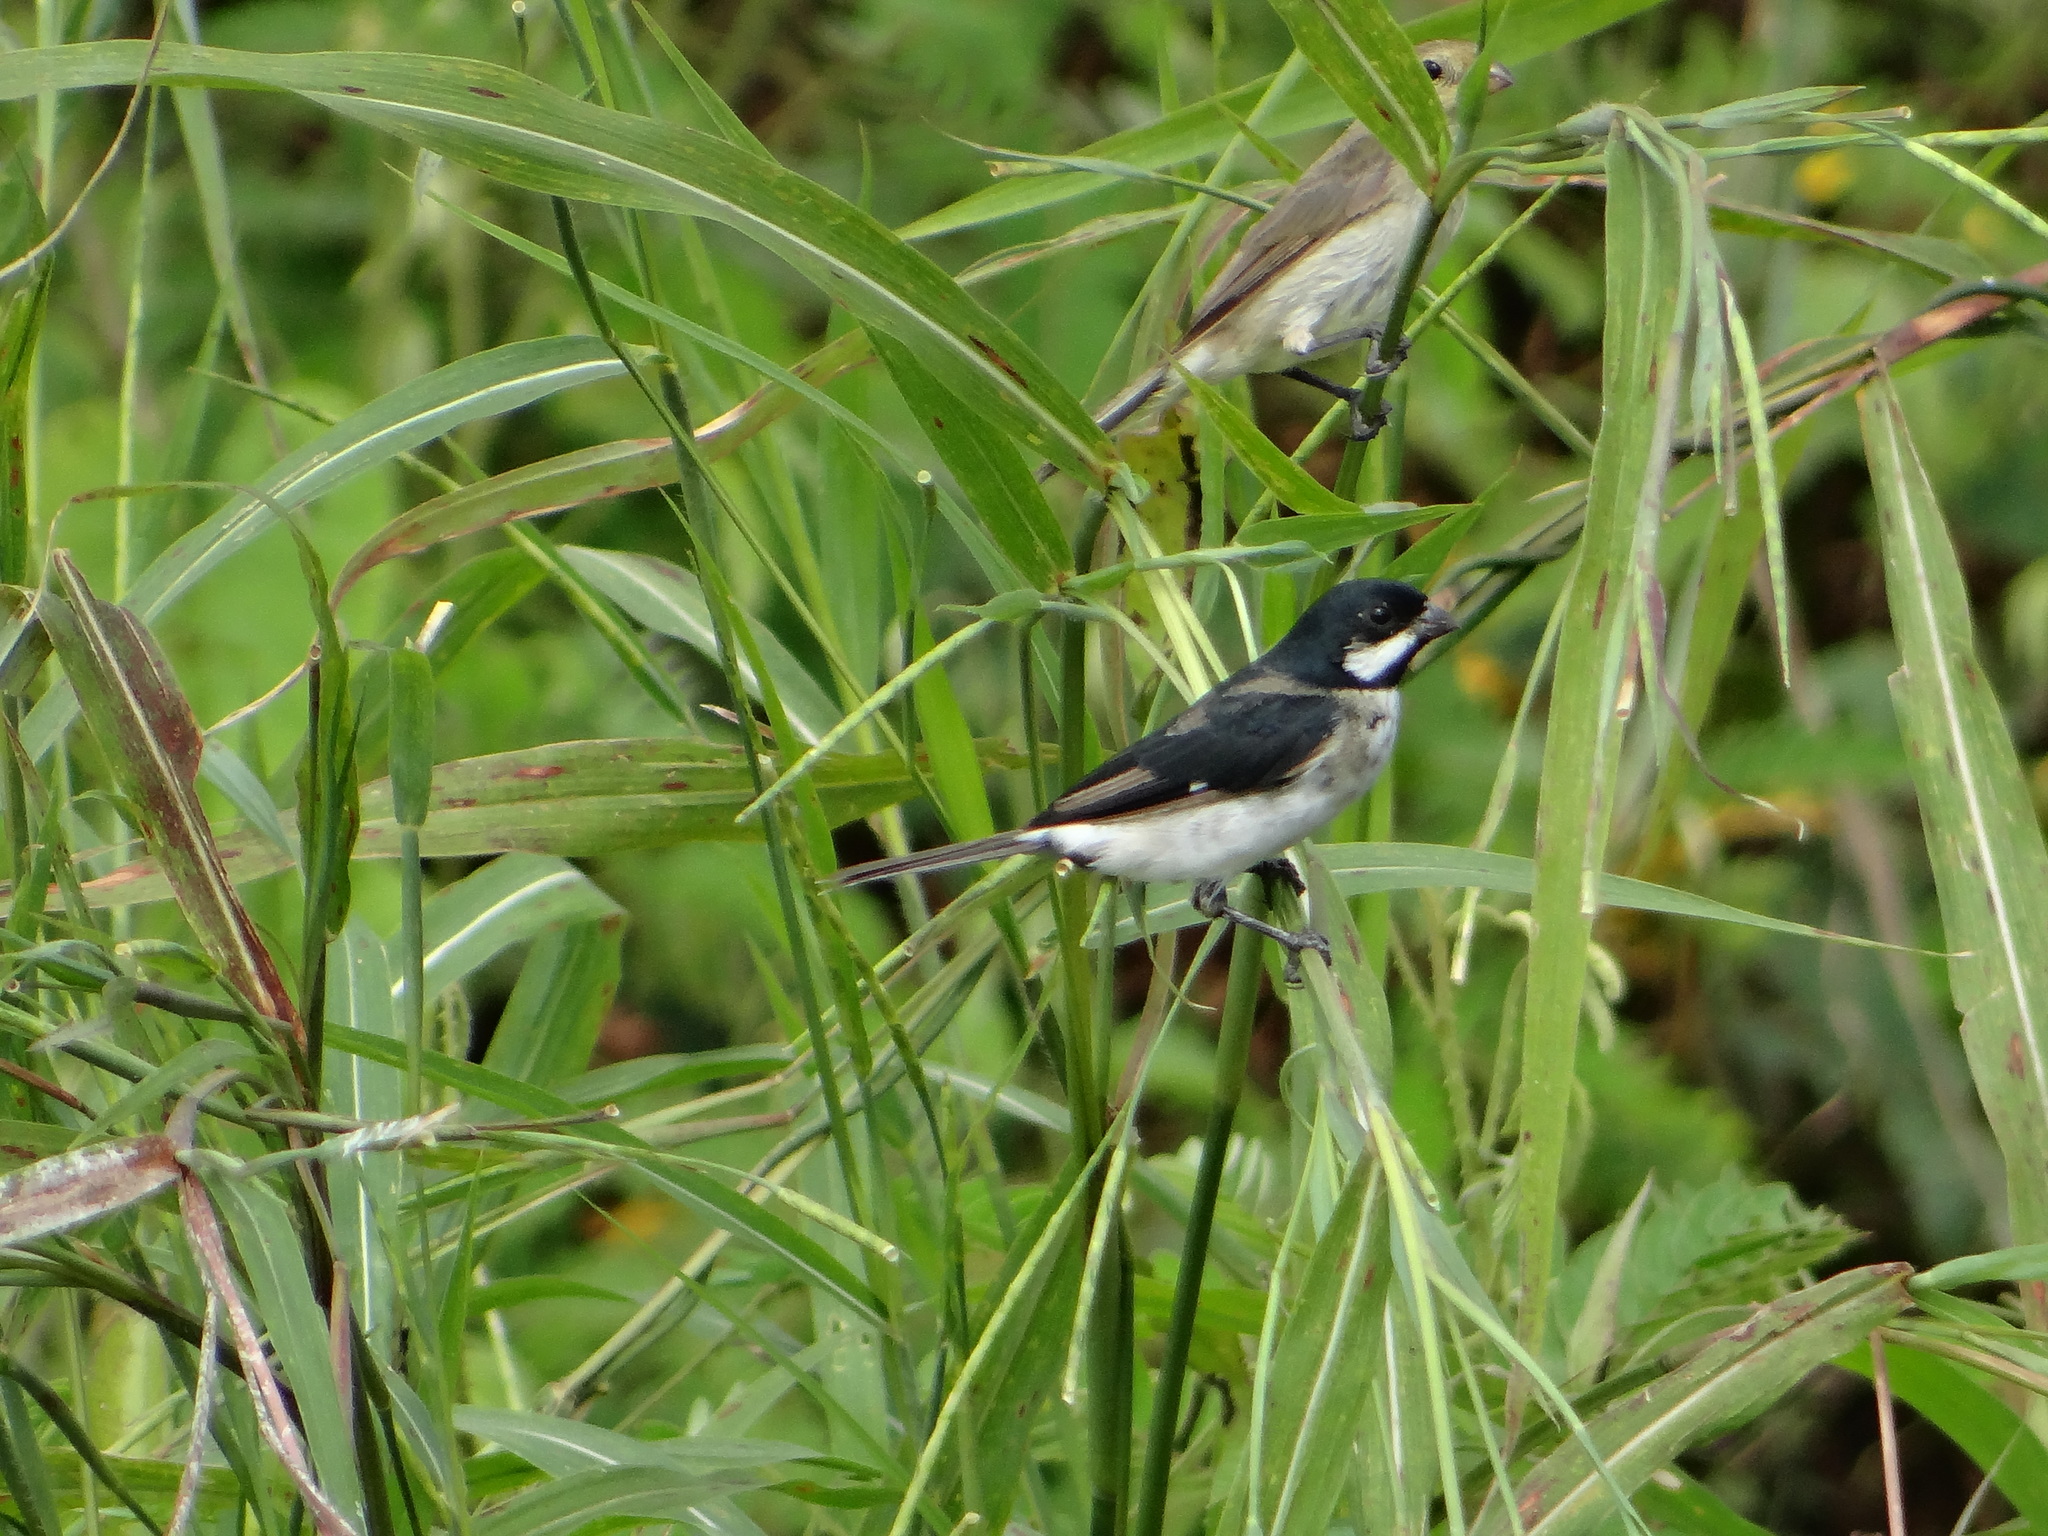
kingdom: Animalia
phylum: Chordata
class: Aves
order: Passeriformes
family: Thraupidae
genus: Sporophila
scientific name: Sporophila bouvronides
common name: Lesson's seedeater
